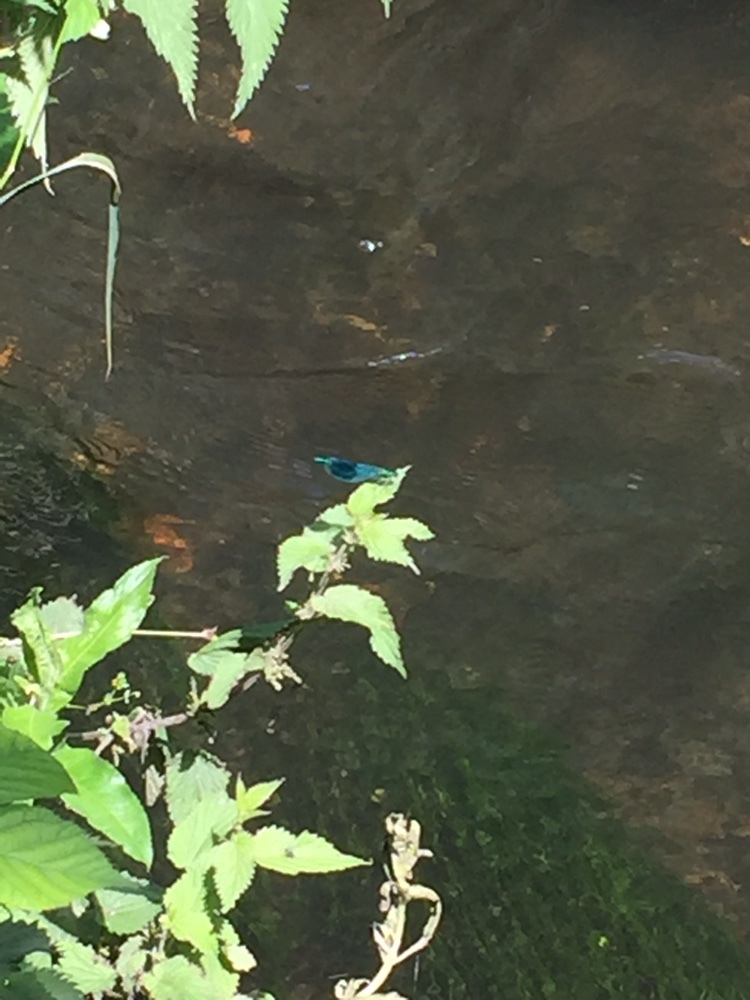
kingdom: Animalia
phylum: Arthropoda
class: Insecta
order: Odonata
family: Calopterygidae
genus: Calopteryx
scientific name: Calopteryx splendens
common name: Banded demoiselle
